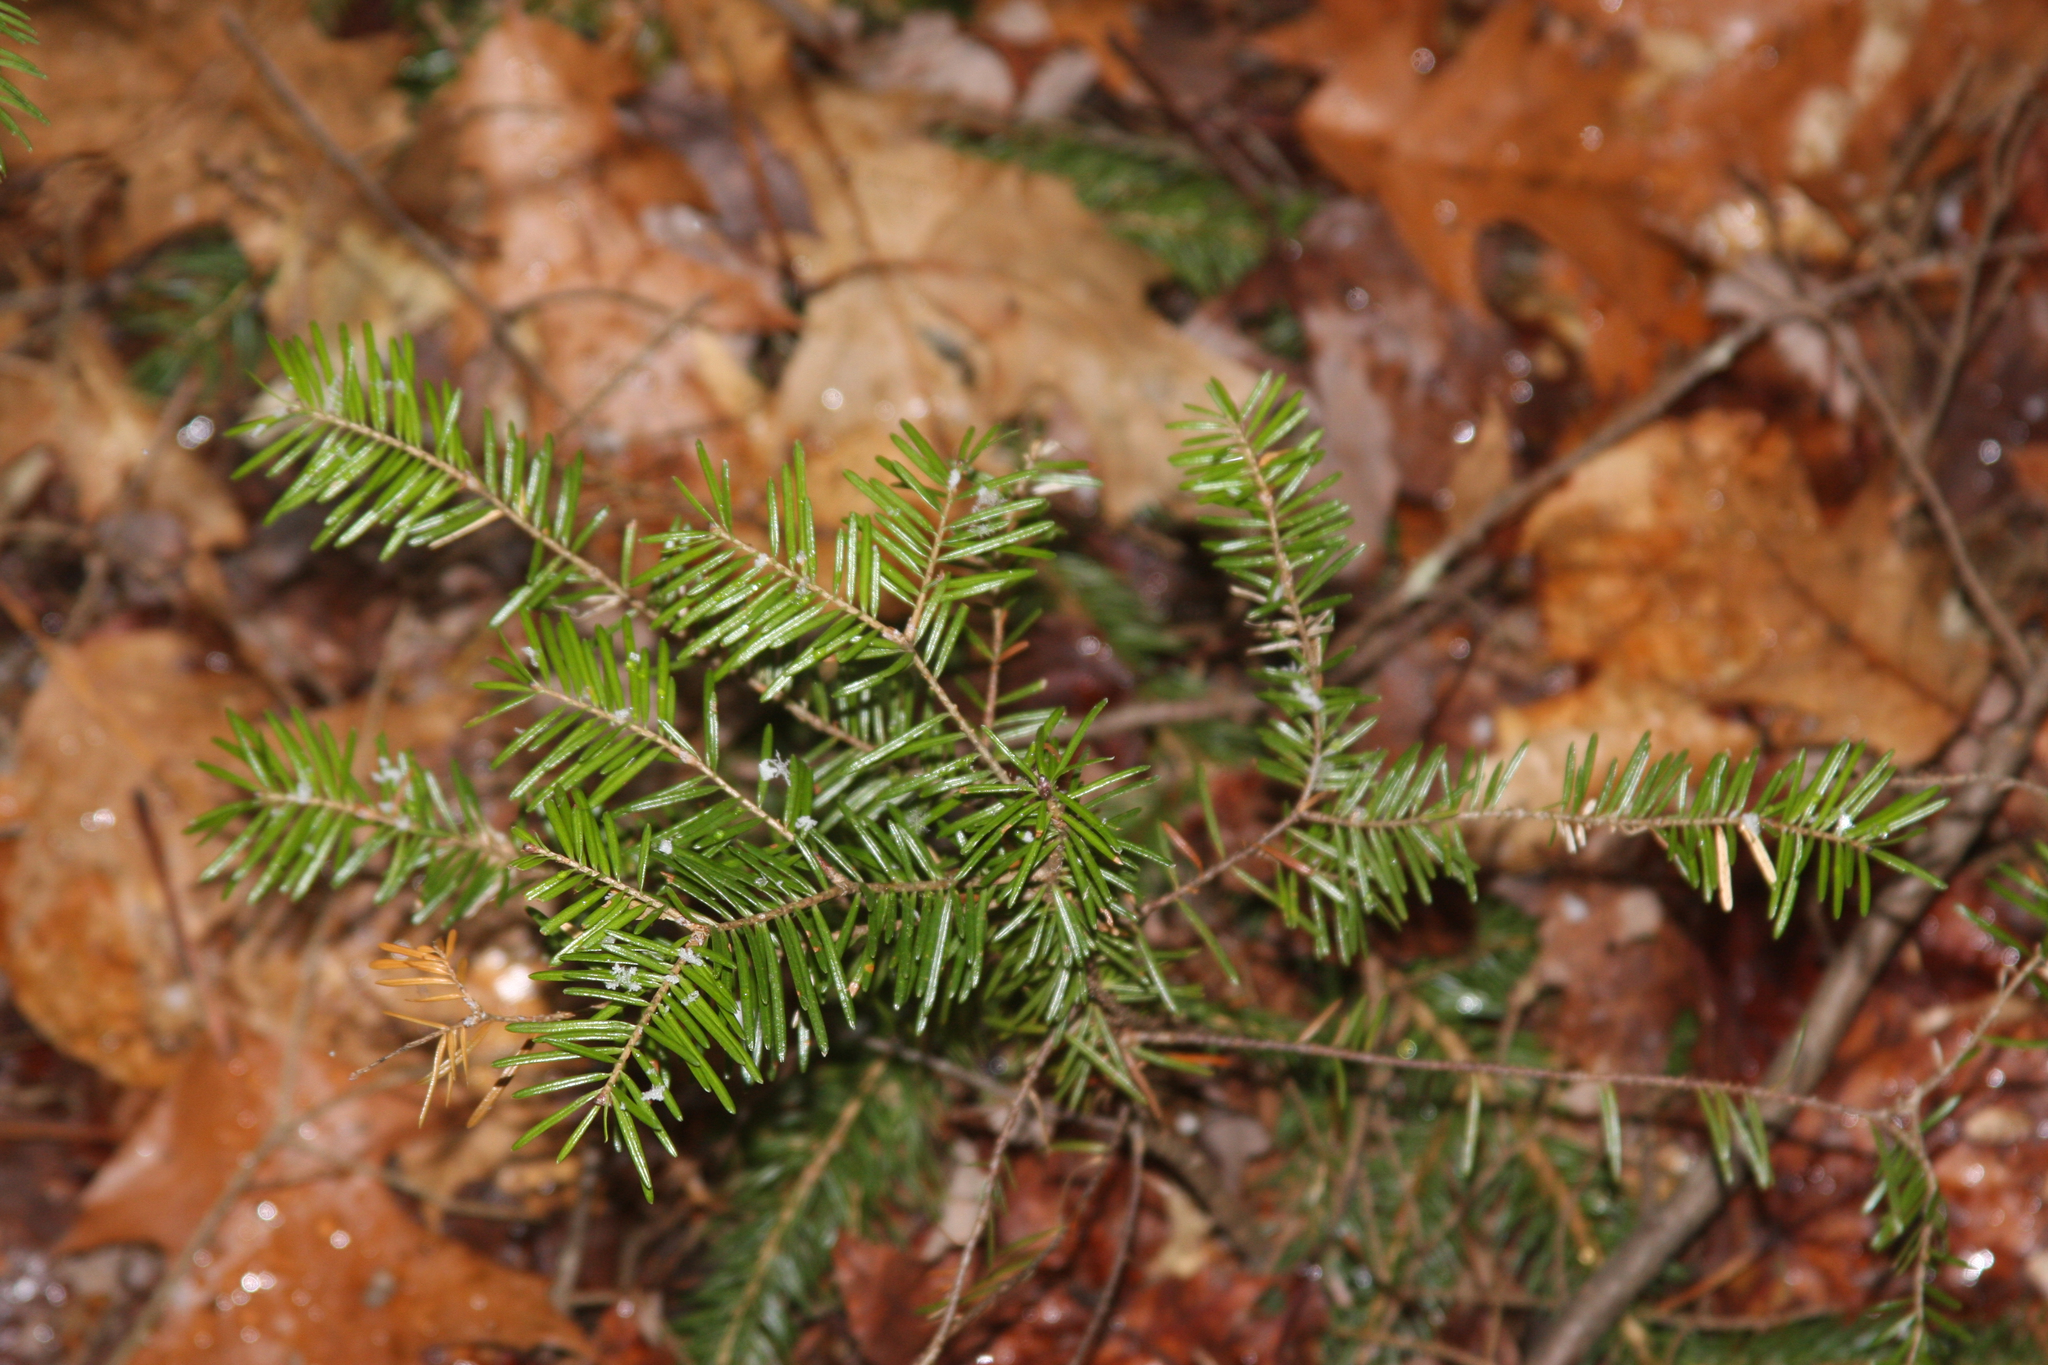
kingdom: Plantae
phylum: Tracheophyta
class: Pinopsida
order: Pinales
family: Pinaceae
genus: Abies
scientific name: Abies balsamea
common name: Balsam fir
